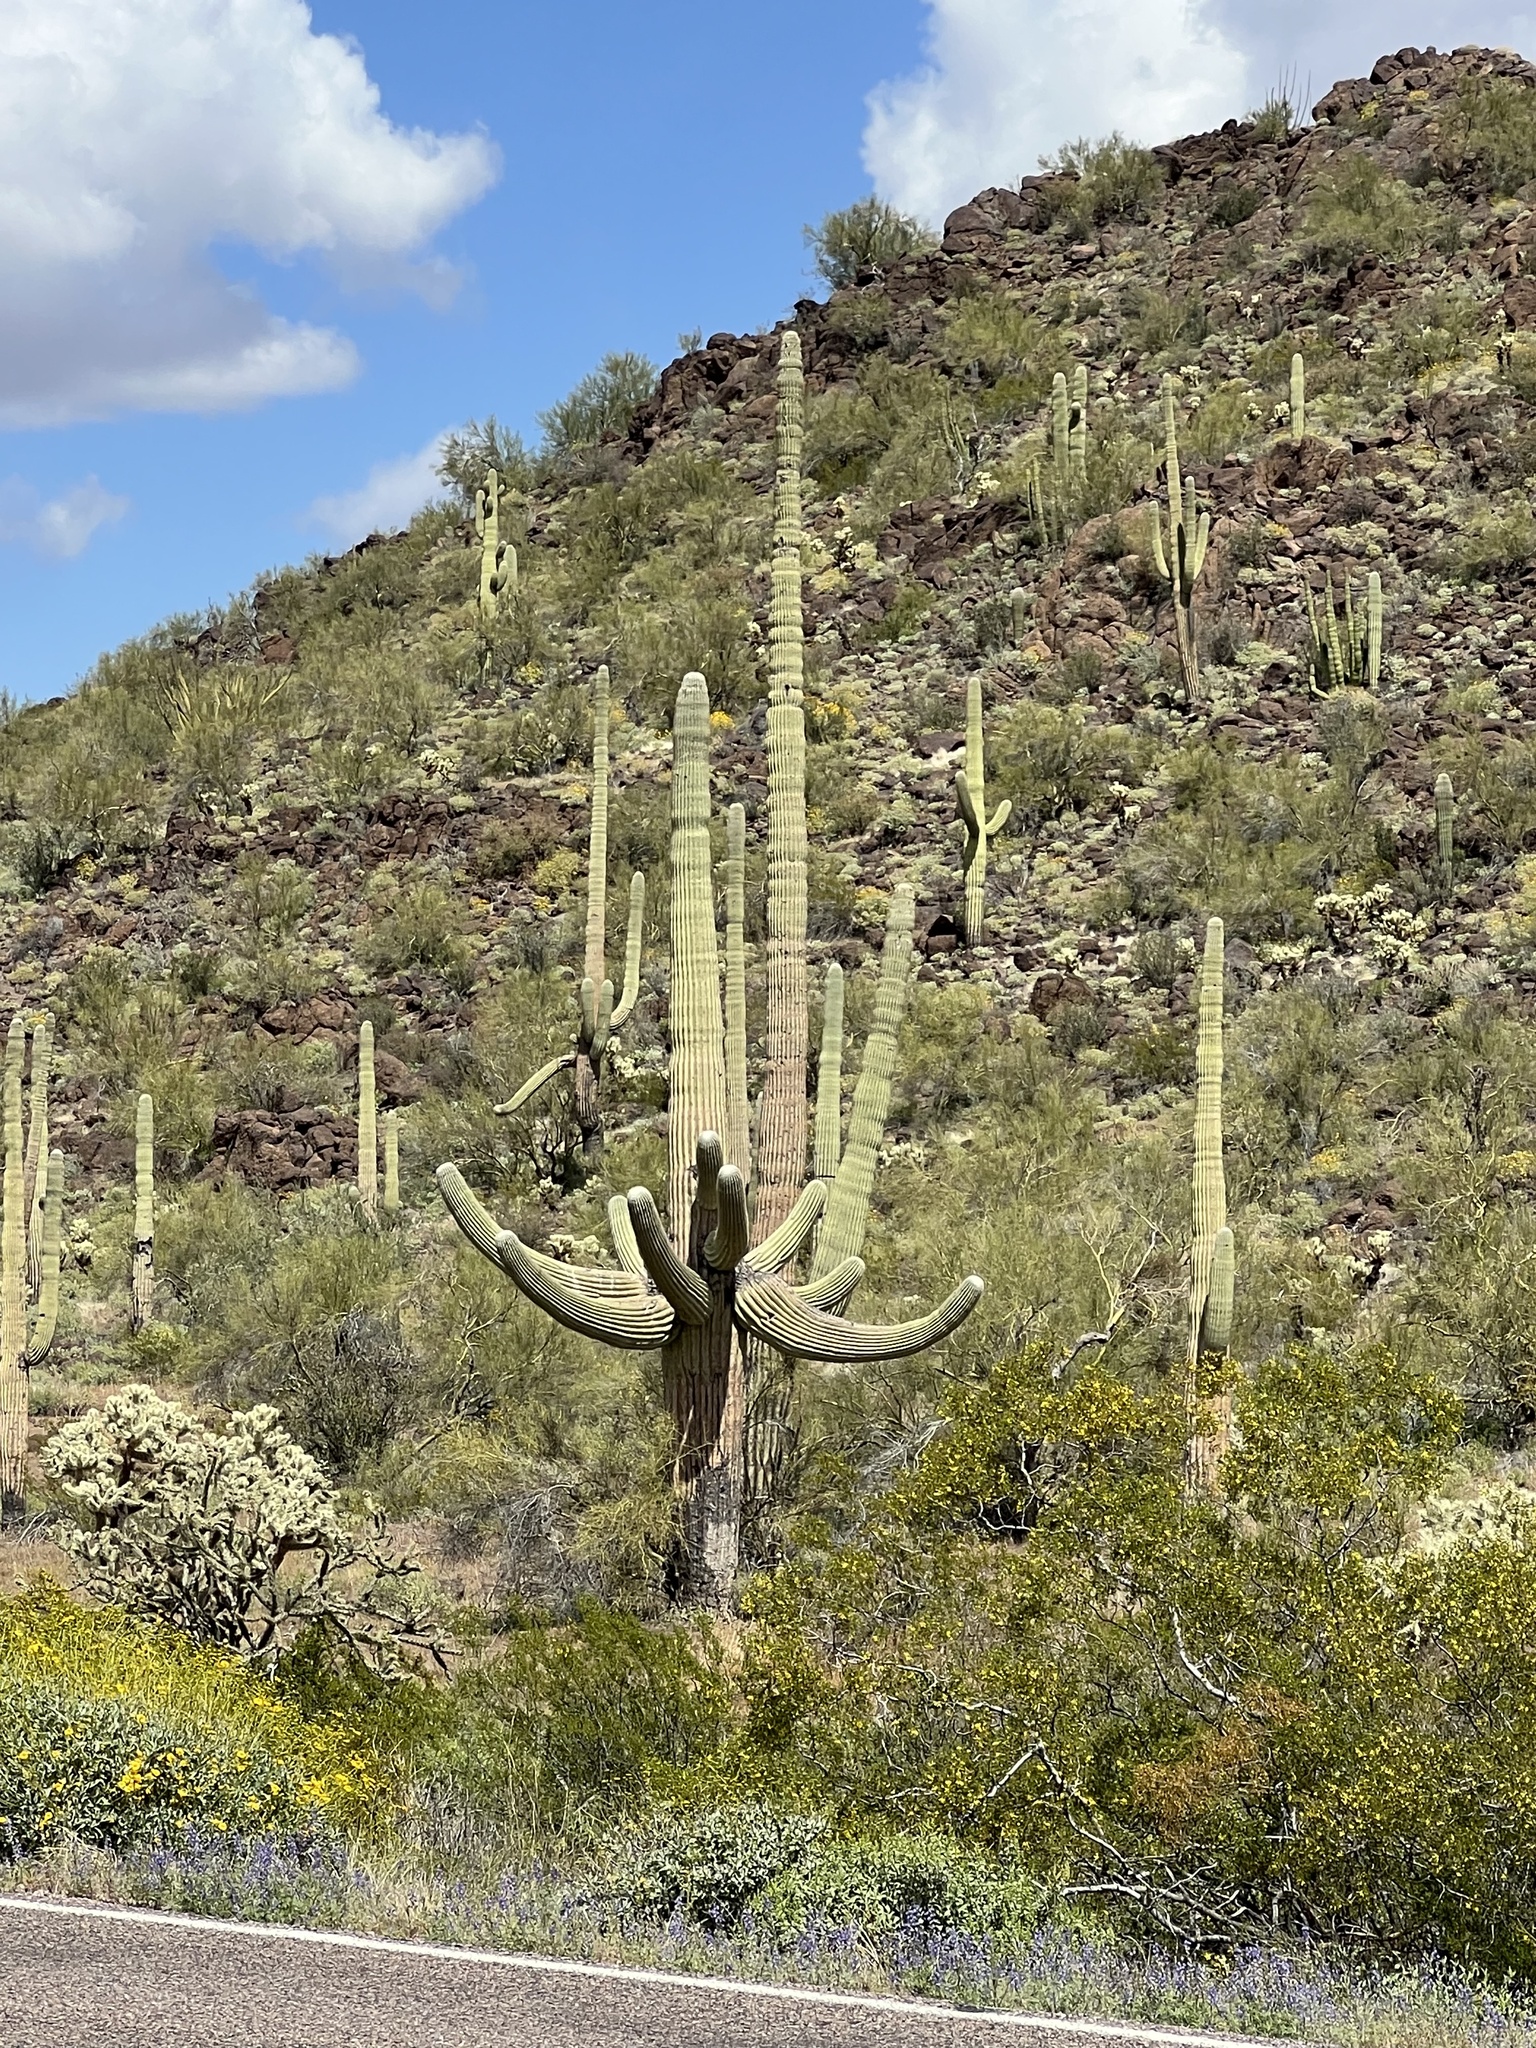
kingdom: Plantae
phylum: Tracheophyta
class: Magnoliopsida
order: Caryophyllales
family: Cactaceae
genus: Carnegiea
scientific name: Carnegiea gigantea
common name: Saguaro
